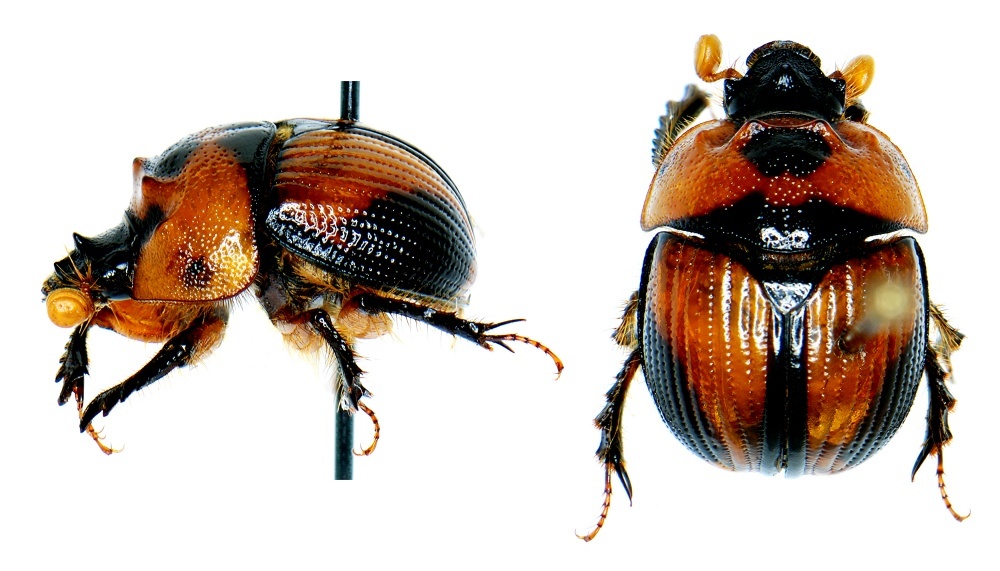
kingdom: Animalia
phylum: Arthropoda
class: Insecta
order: Coleoptera
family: Geotrupidae
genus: Bolbocerosoma
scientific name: Bolbocerosoma tumefactum
